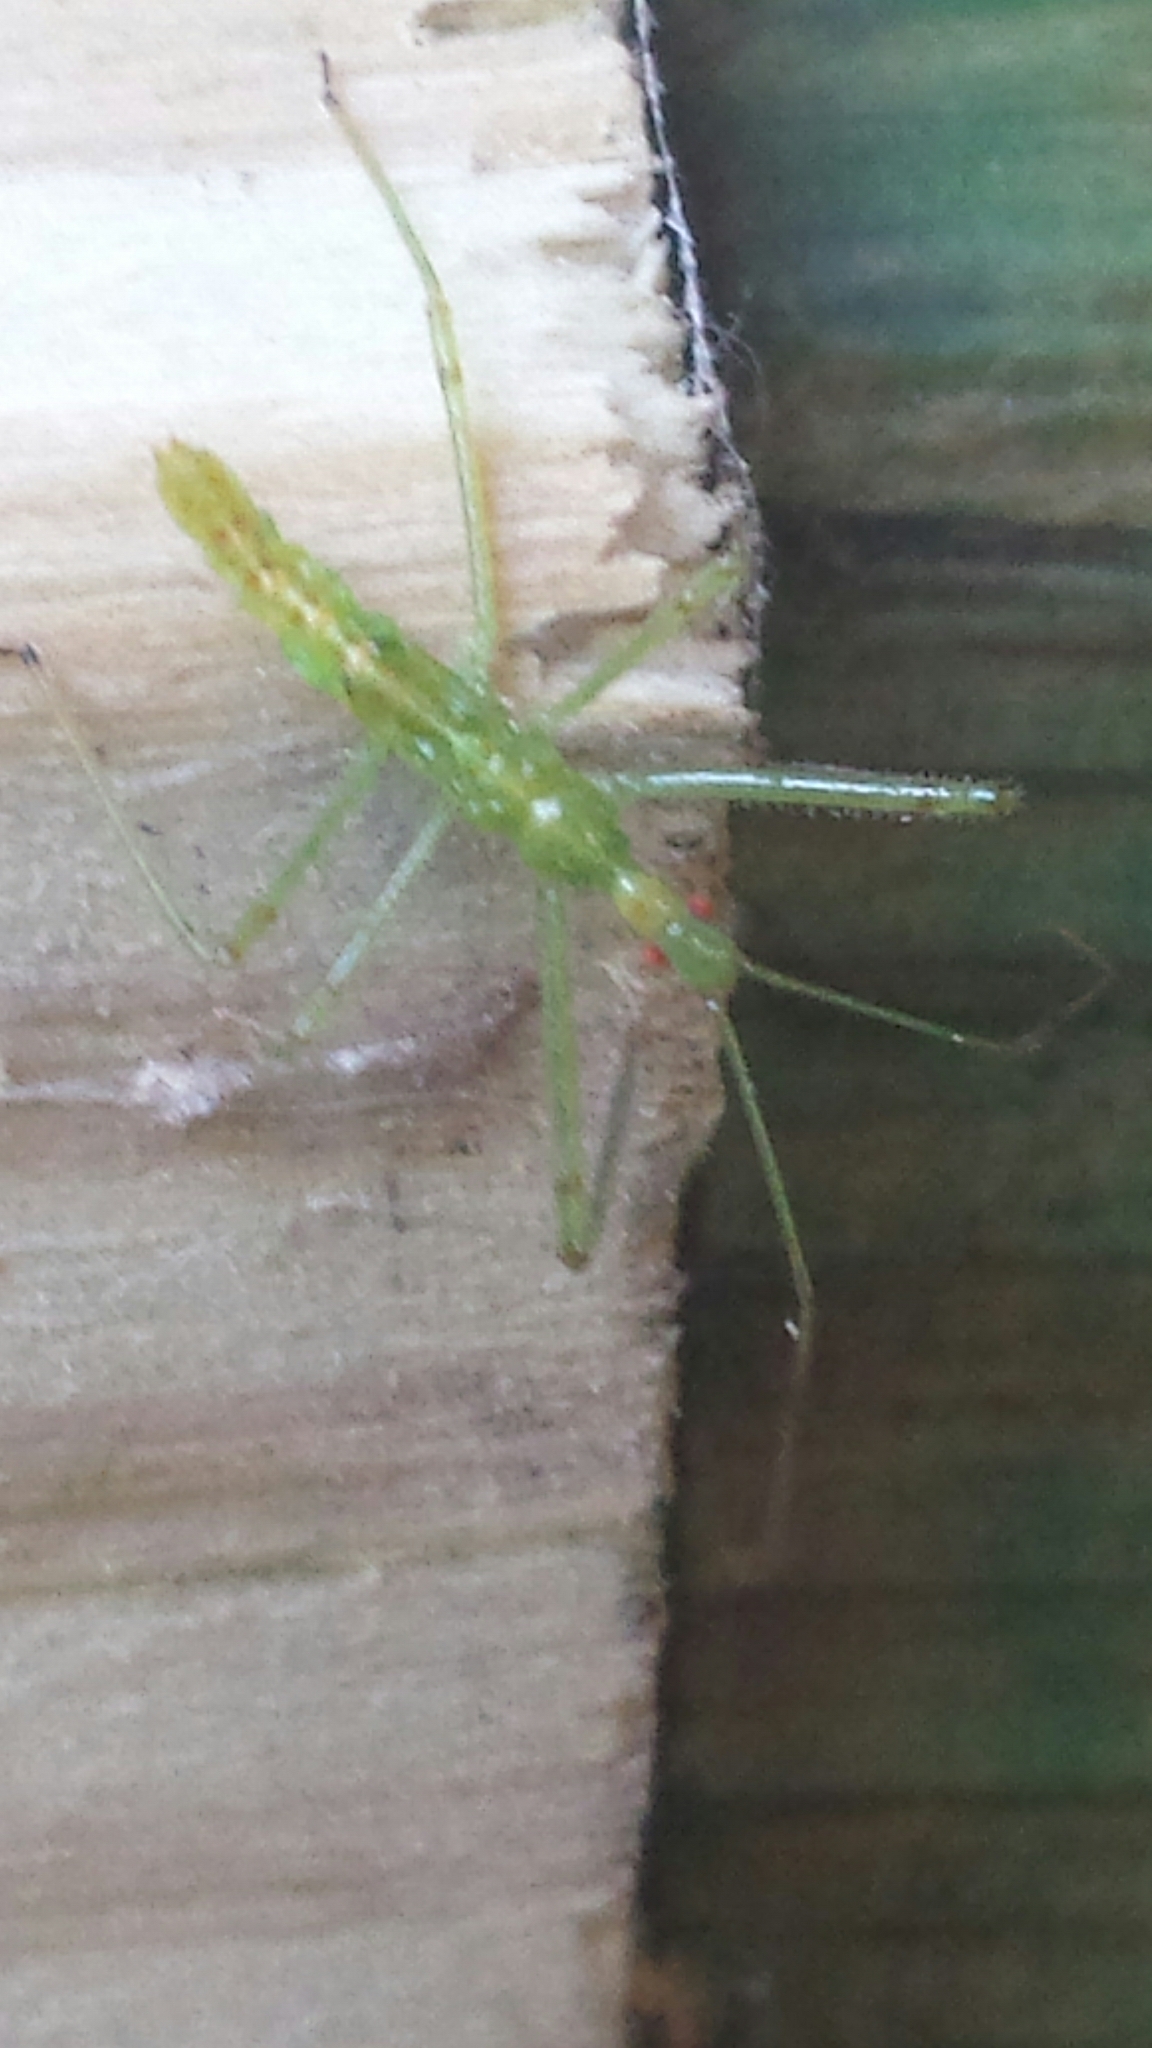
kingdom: Animalia
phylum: Arthropoda
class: Insecta
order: Hemiptera
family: Reduviidae
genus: Zelus
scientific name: Zelus luridus
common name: Pale green assassin bug
